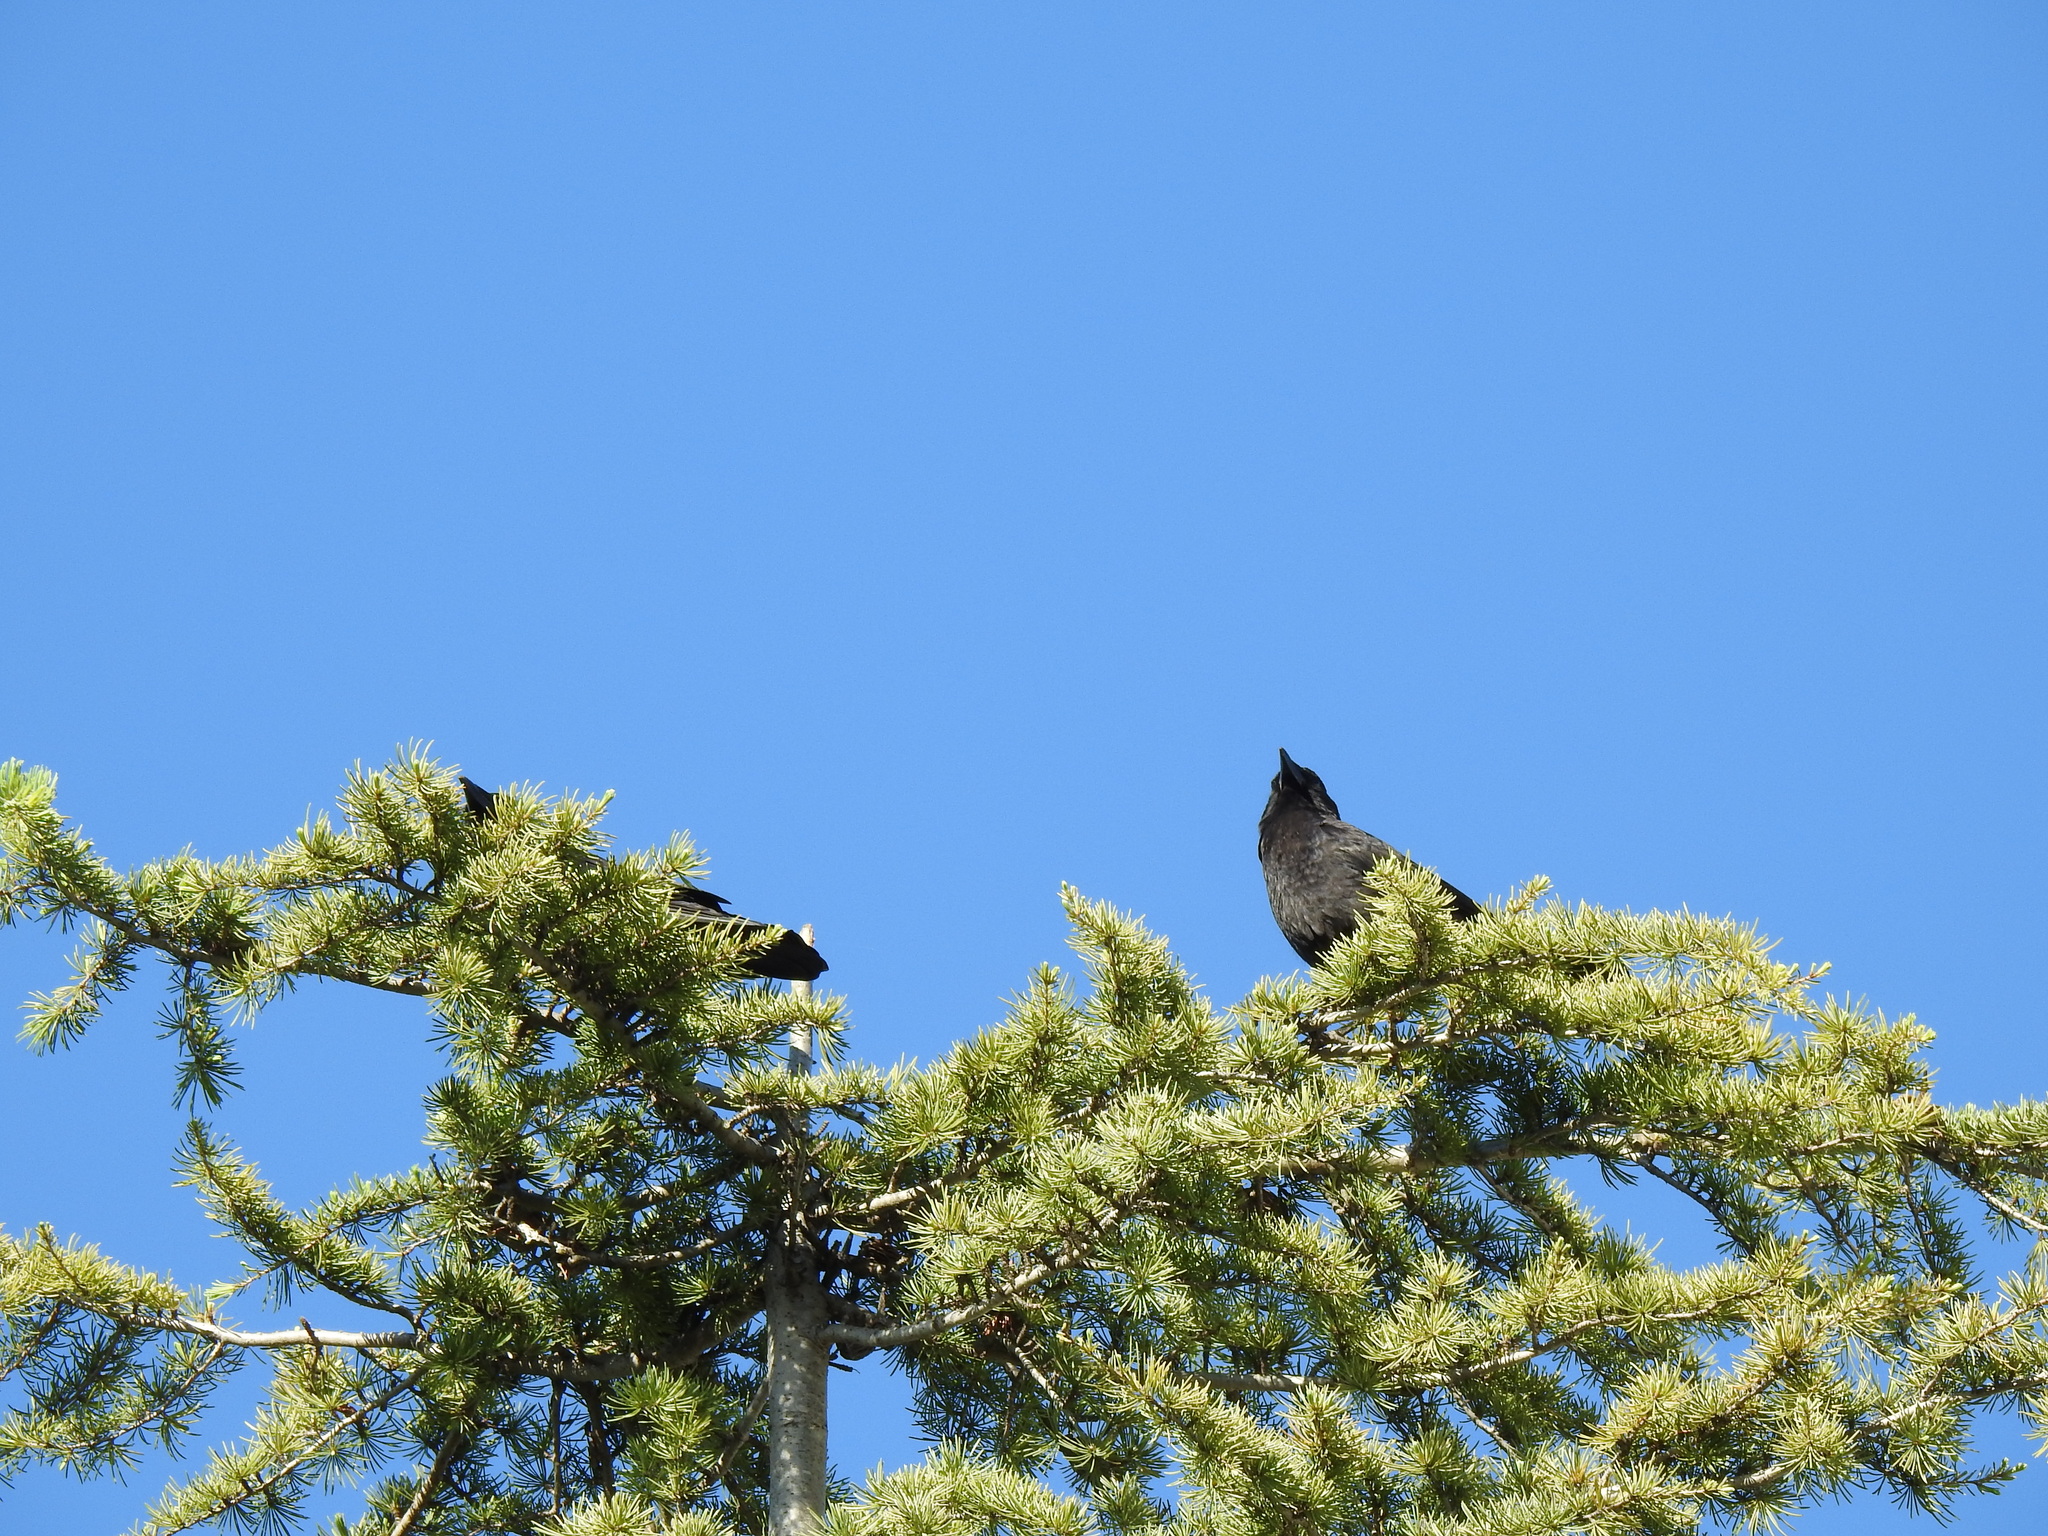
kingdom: Animalia
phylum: Chordata
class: Aves
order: Passeriformes
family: Corvidae
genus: Corvus
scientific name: Corvus brachyrhynchos
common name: American crow
